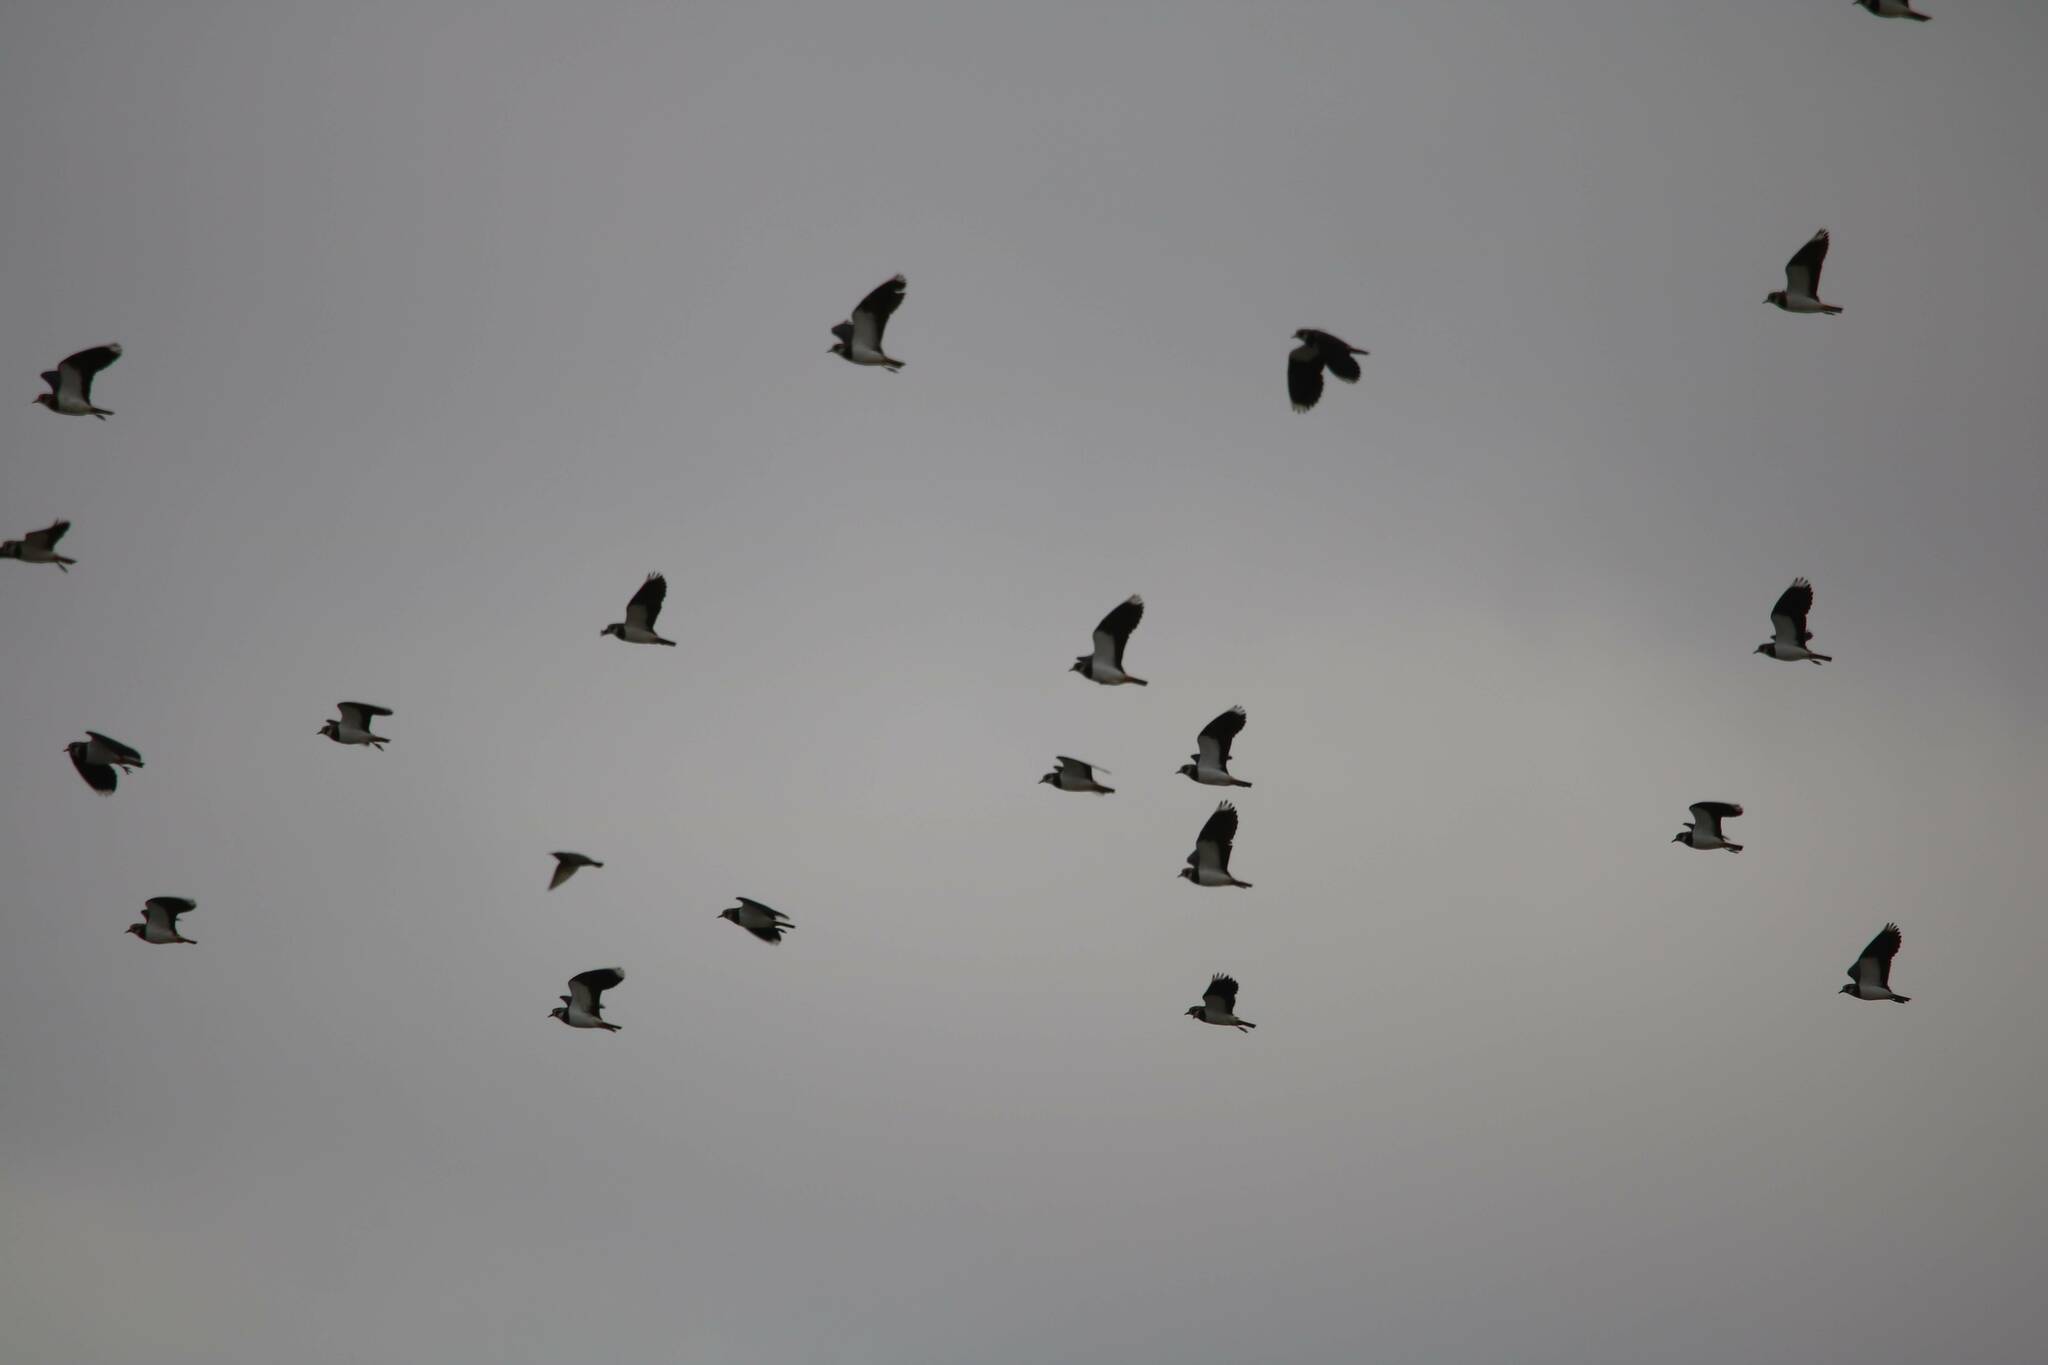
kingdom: Animalia
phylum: Chordata
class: Aves
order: Charadriiformes
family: Charadriidae
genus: Vanellus
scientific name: Vanellus vanellus
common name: Northern lapwing
